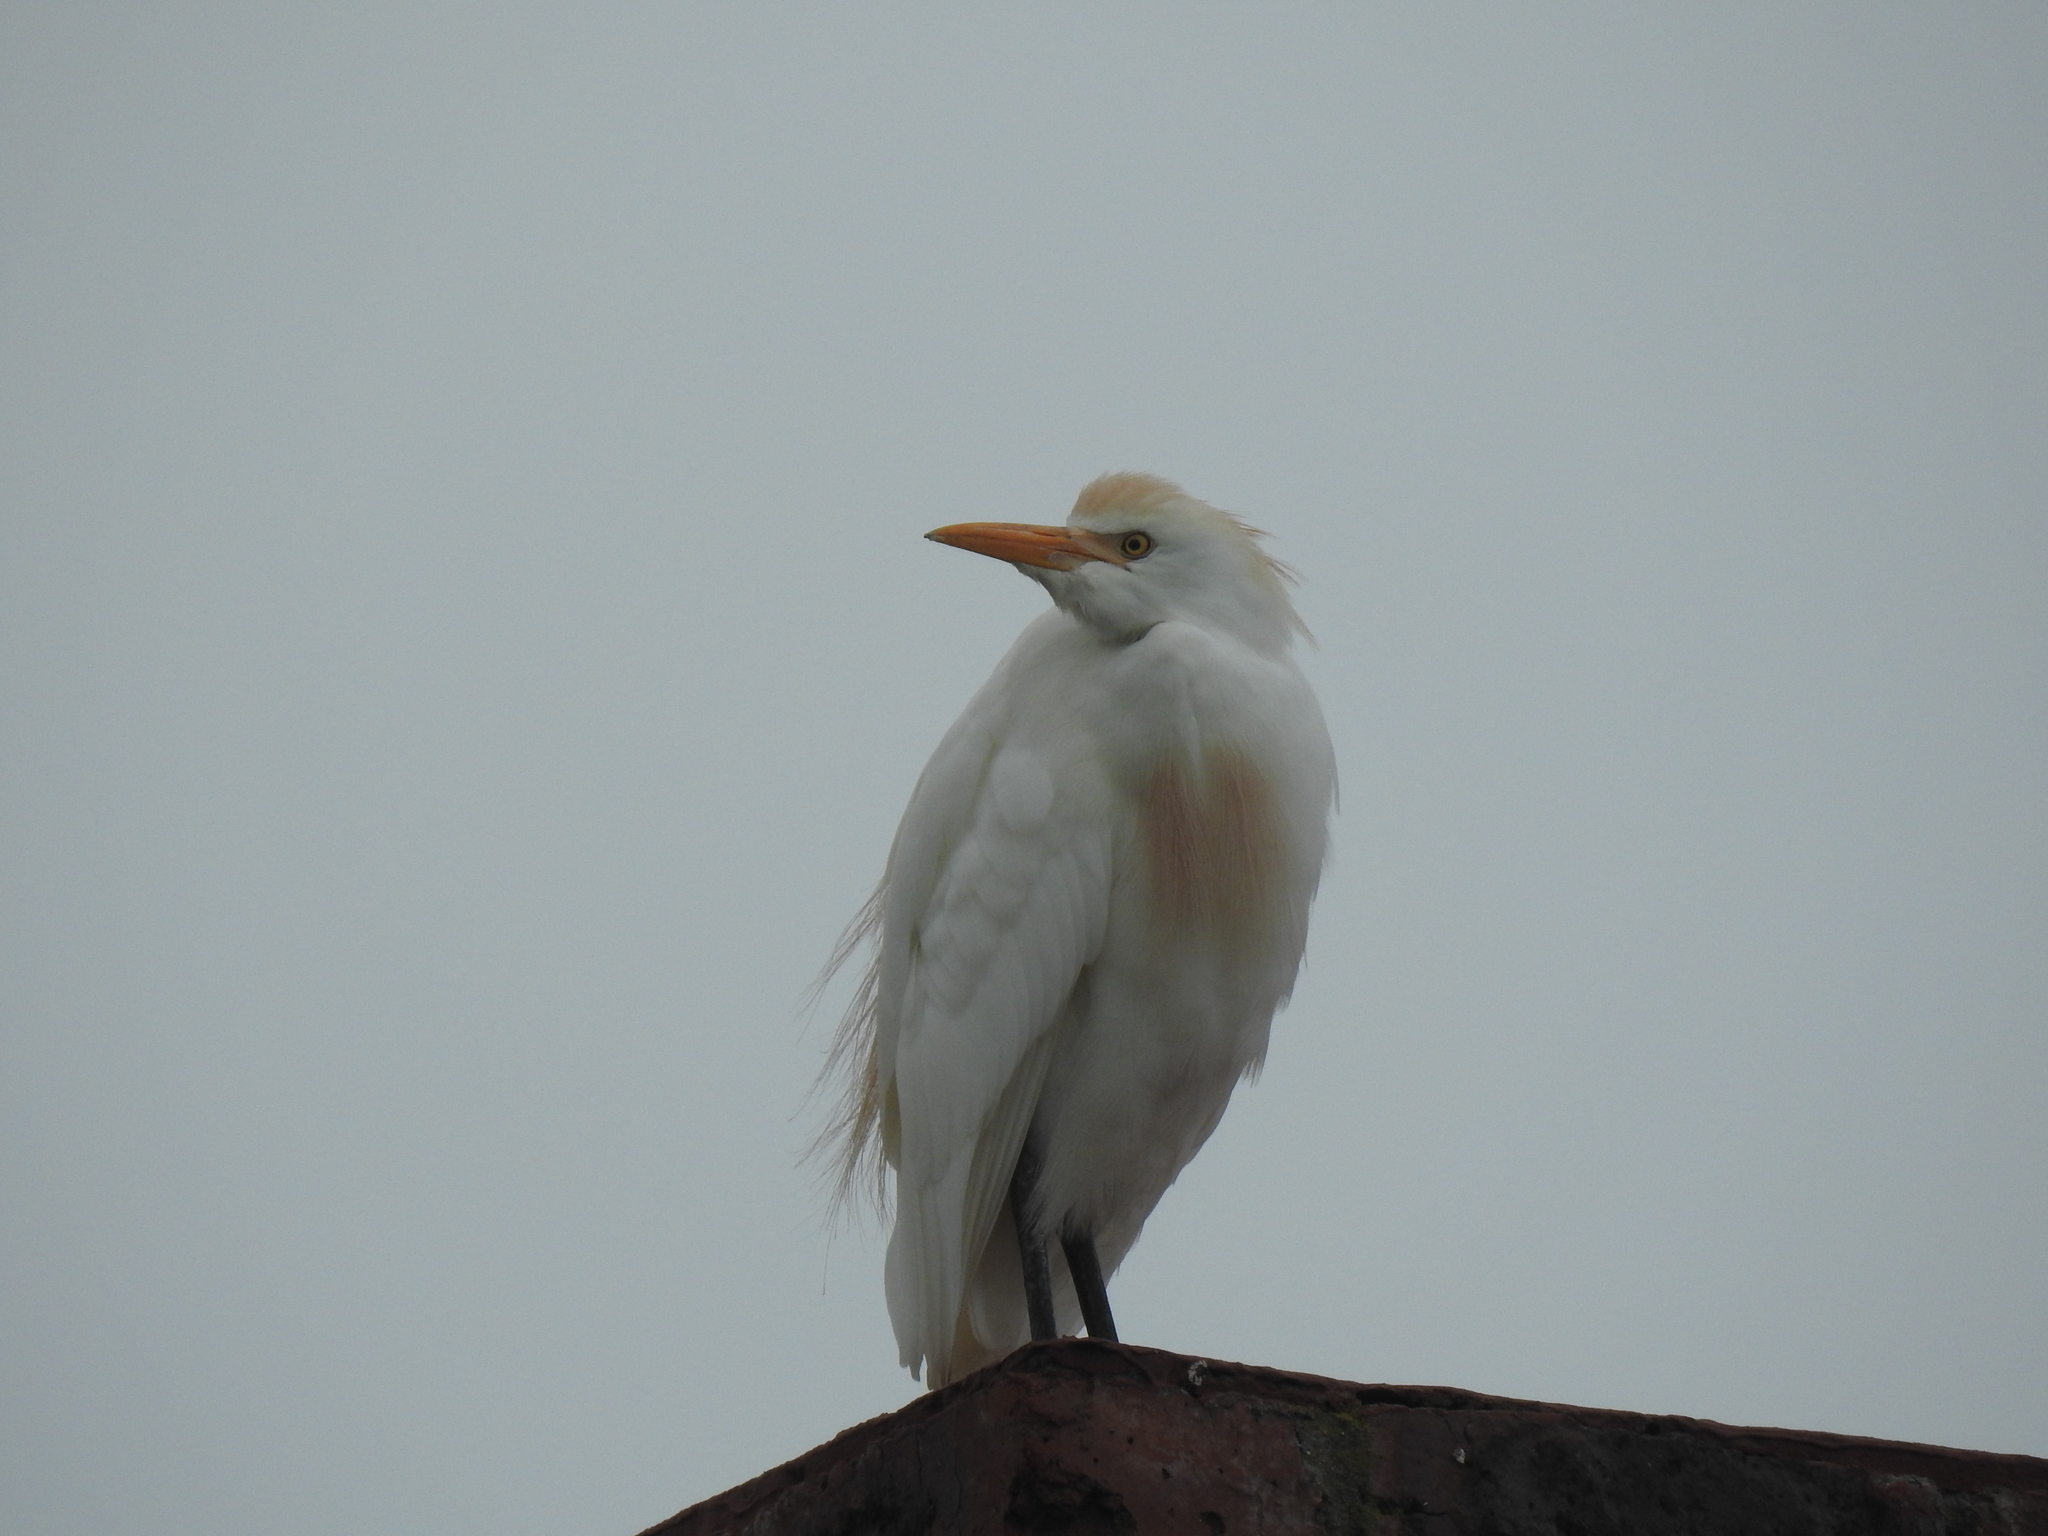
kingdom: Animalia
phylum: Chordata
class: Aves
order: Pelecaniformes
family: Ardeidae
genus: Bubulcus
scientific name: Bubulcus ibis
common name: Cattle egret
